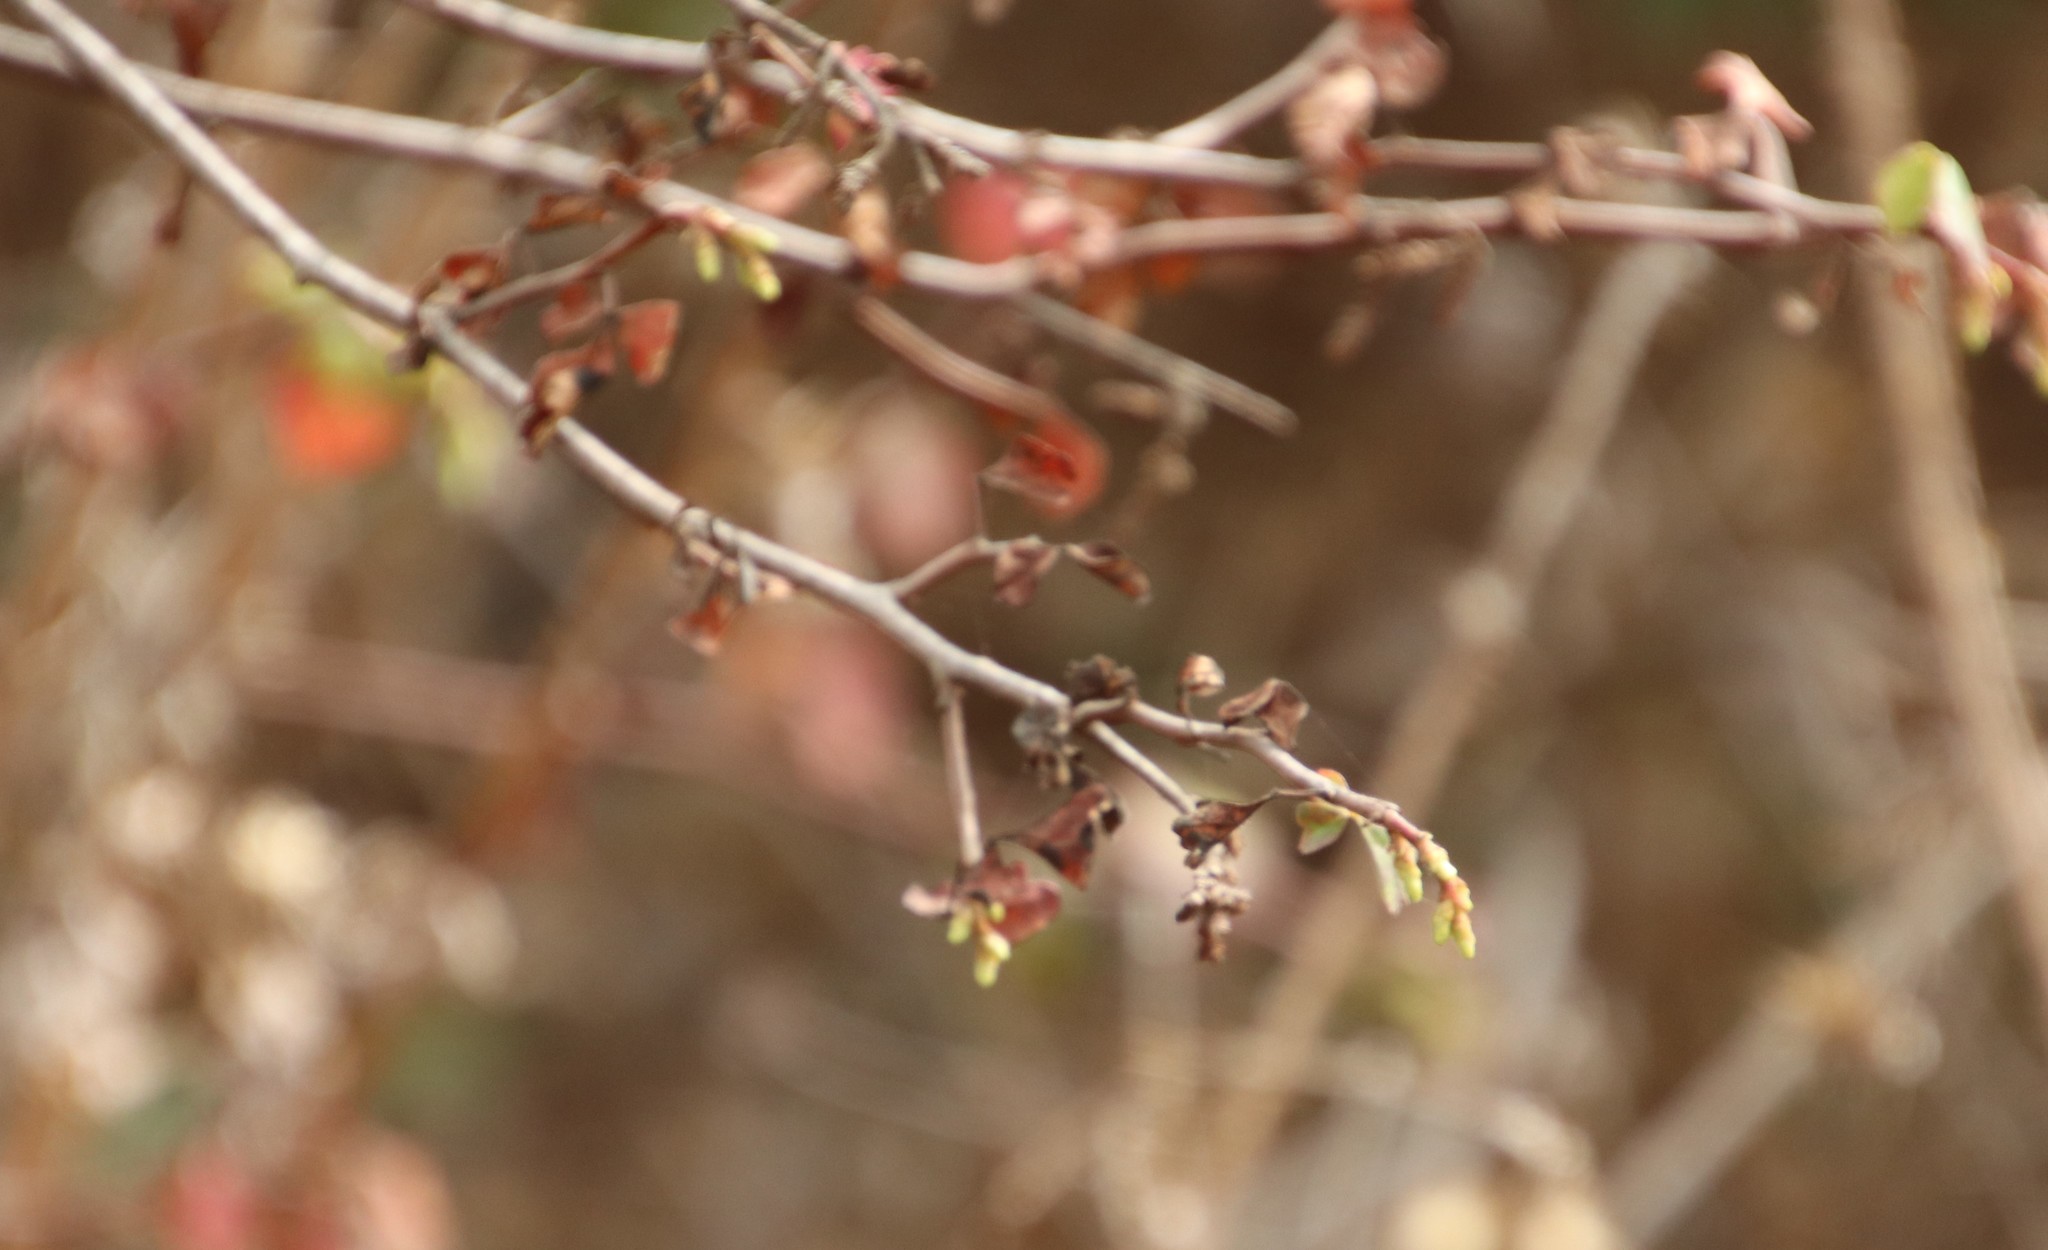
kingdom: Plantae
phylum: Tracheophyta
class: Magnoliopsida
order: Sapindales
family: Anacardiaceae
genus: Rhus
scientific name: Rhus aromatica
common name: Aromatic sumac
